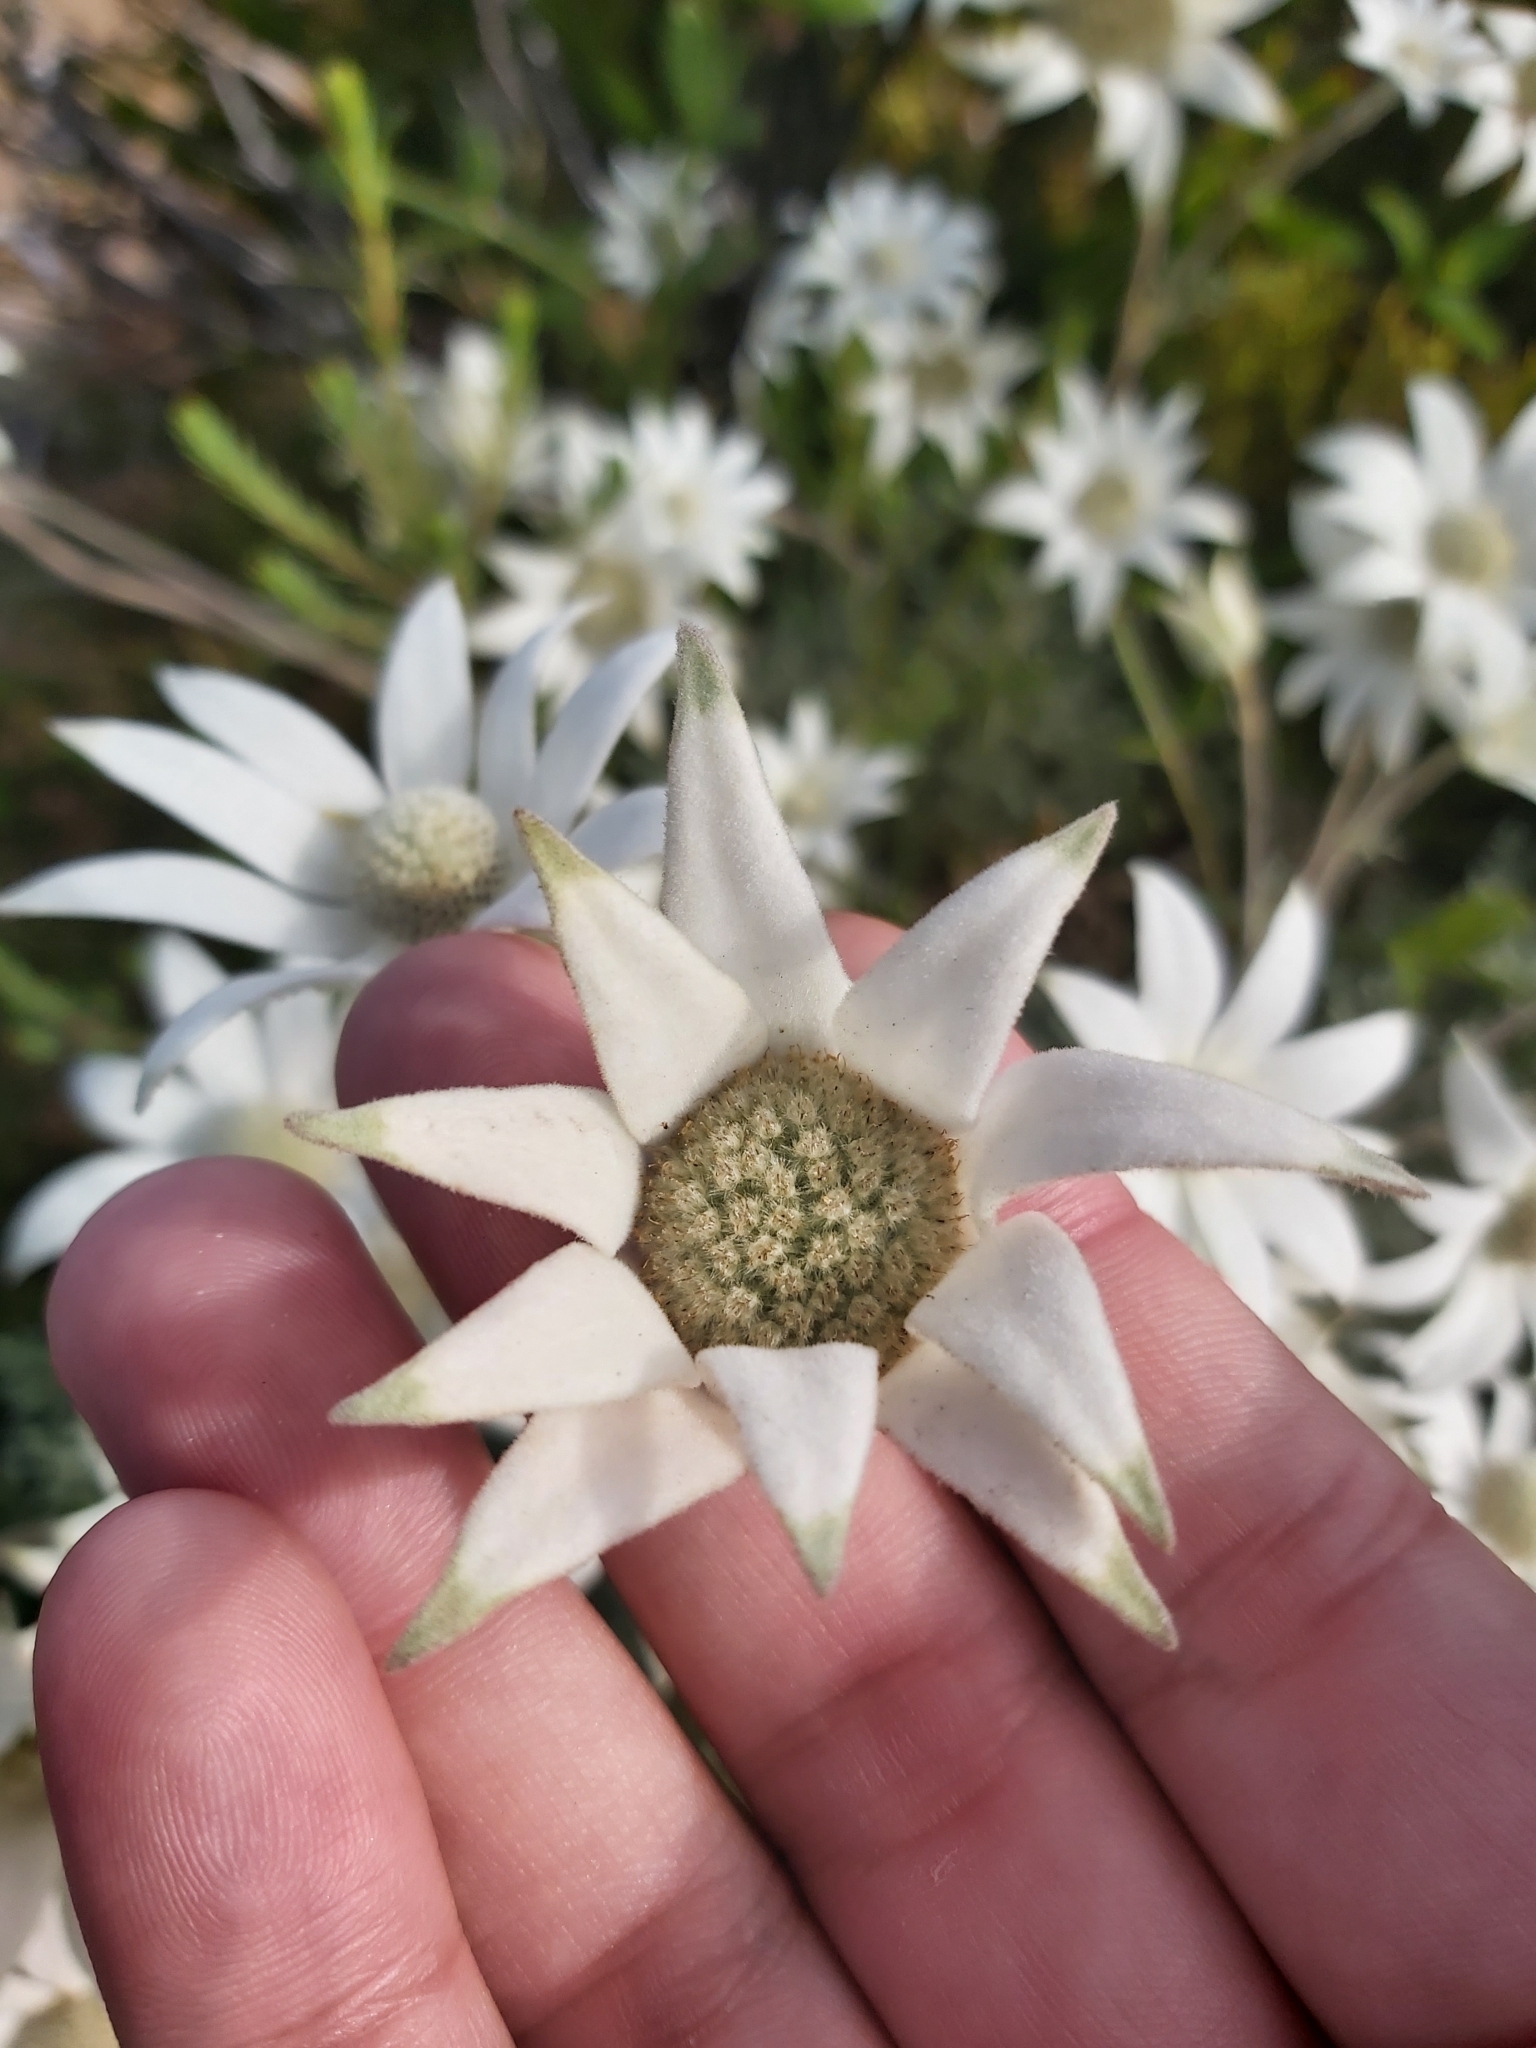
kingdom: Plantae
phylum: Tracheophyta
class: Magnoliopsida
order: Apiales
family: Apiaceae
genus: Actinotus
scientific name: Actinotus helianthi
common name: Flannel-flower
